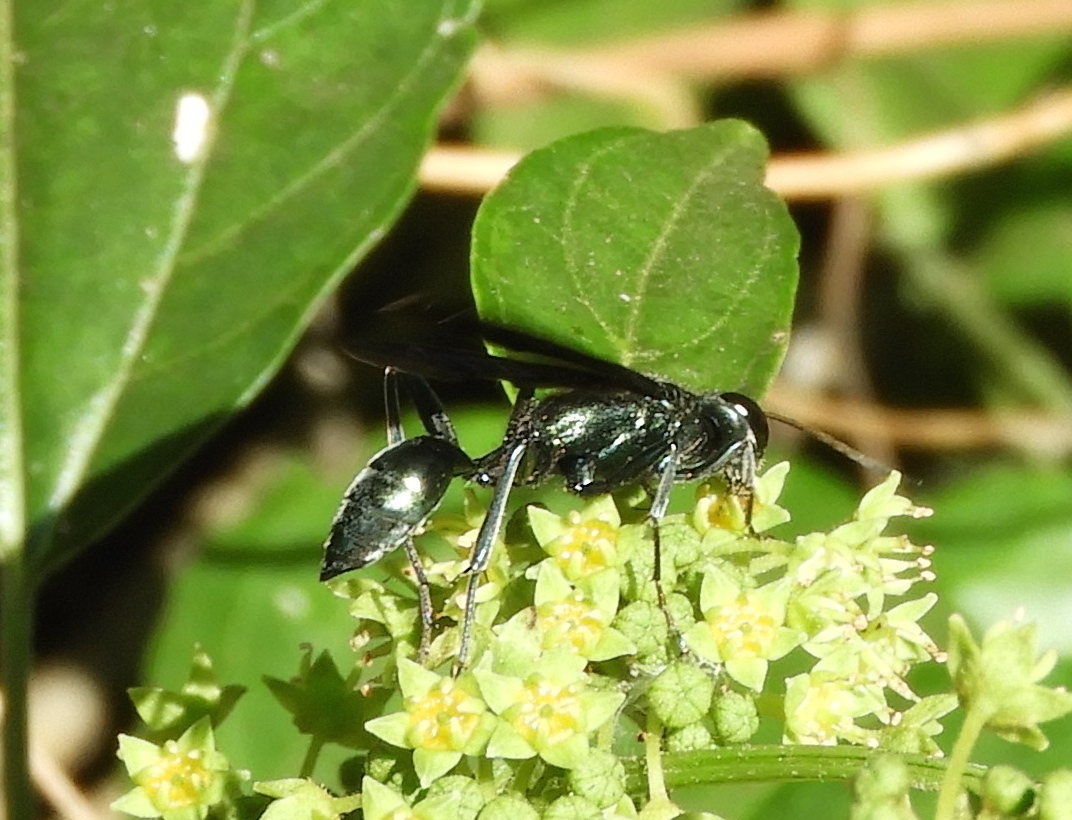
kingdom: Animalia
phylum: Arthropoda
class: Insecta
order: Hymenoptera
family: Sphecidae
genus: Chalybion
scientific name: Chalybion
